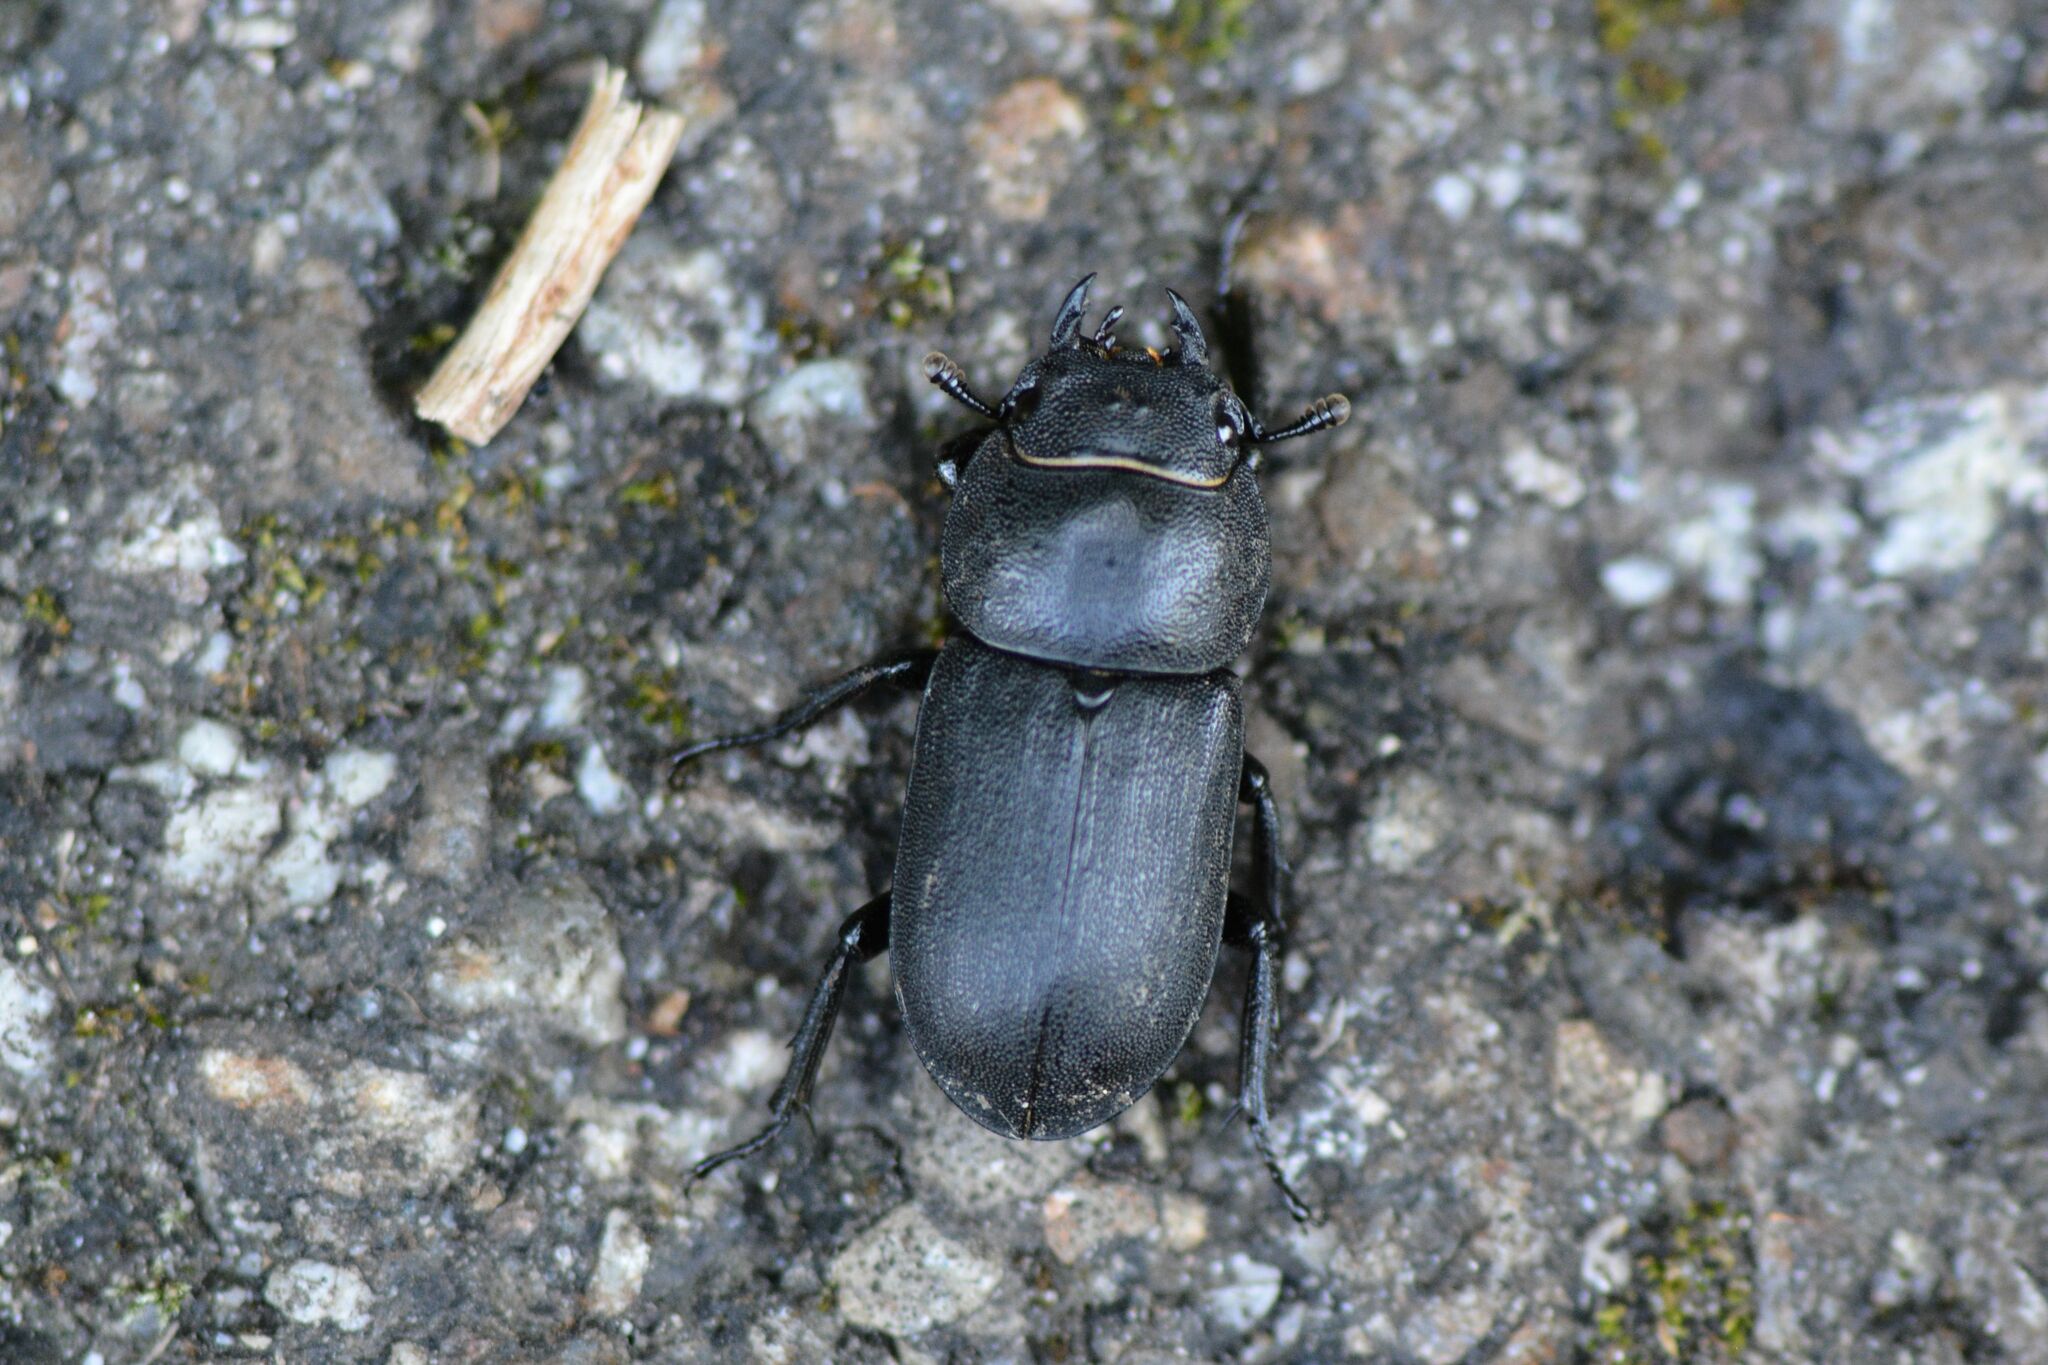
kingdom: Animalia
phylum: Arthropoda
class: Insecta
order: Coleoptera
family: Lucanidae
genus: Dorcus
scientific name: Dorcus parallelipipedus
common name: Lesser stag beetle
